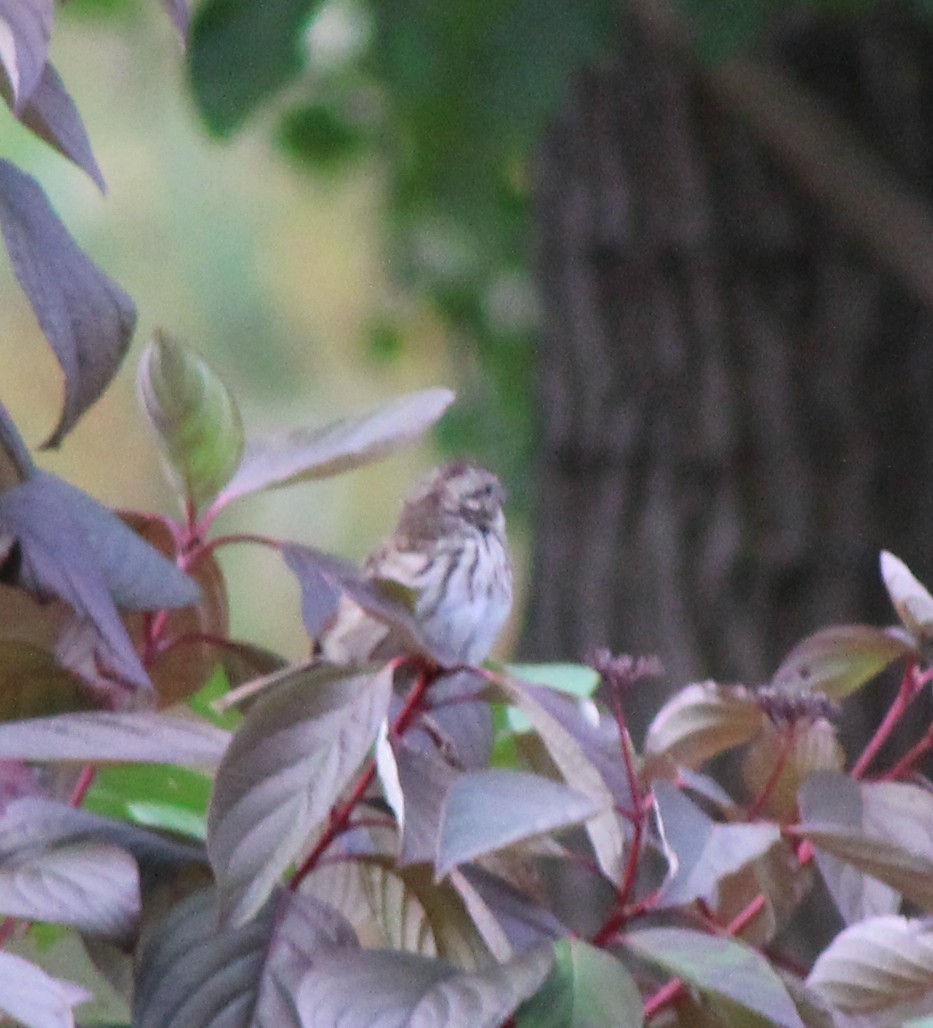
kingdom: Animalia
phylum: Chordata
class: Aves
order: Passeriformes
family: Passerellidae
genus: Melospiza
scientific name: Melospiza melodia
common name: Song sparrow
